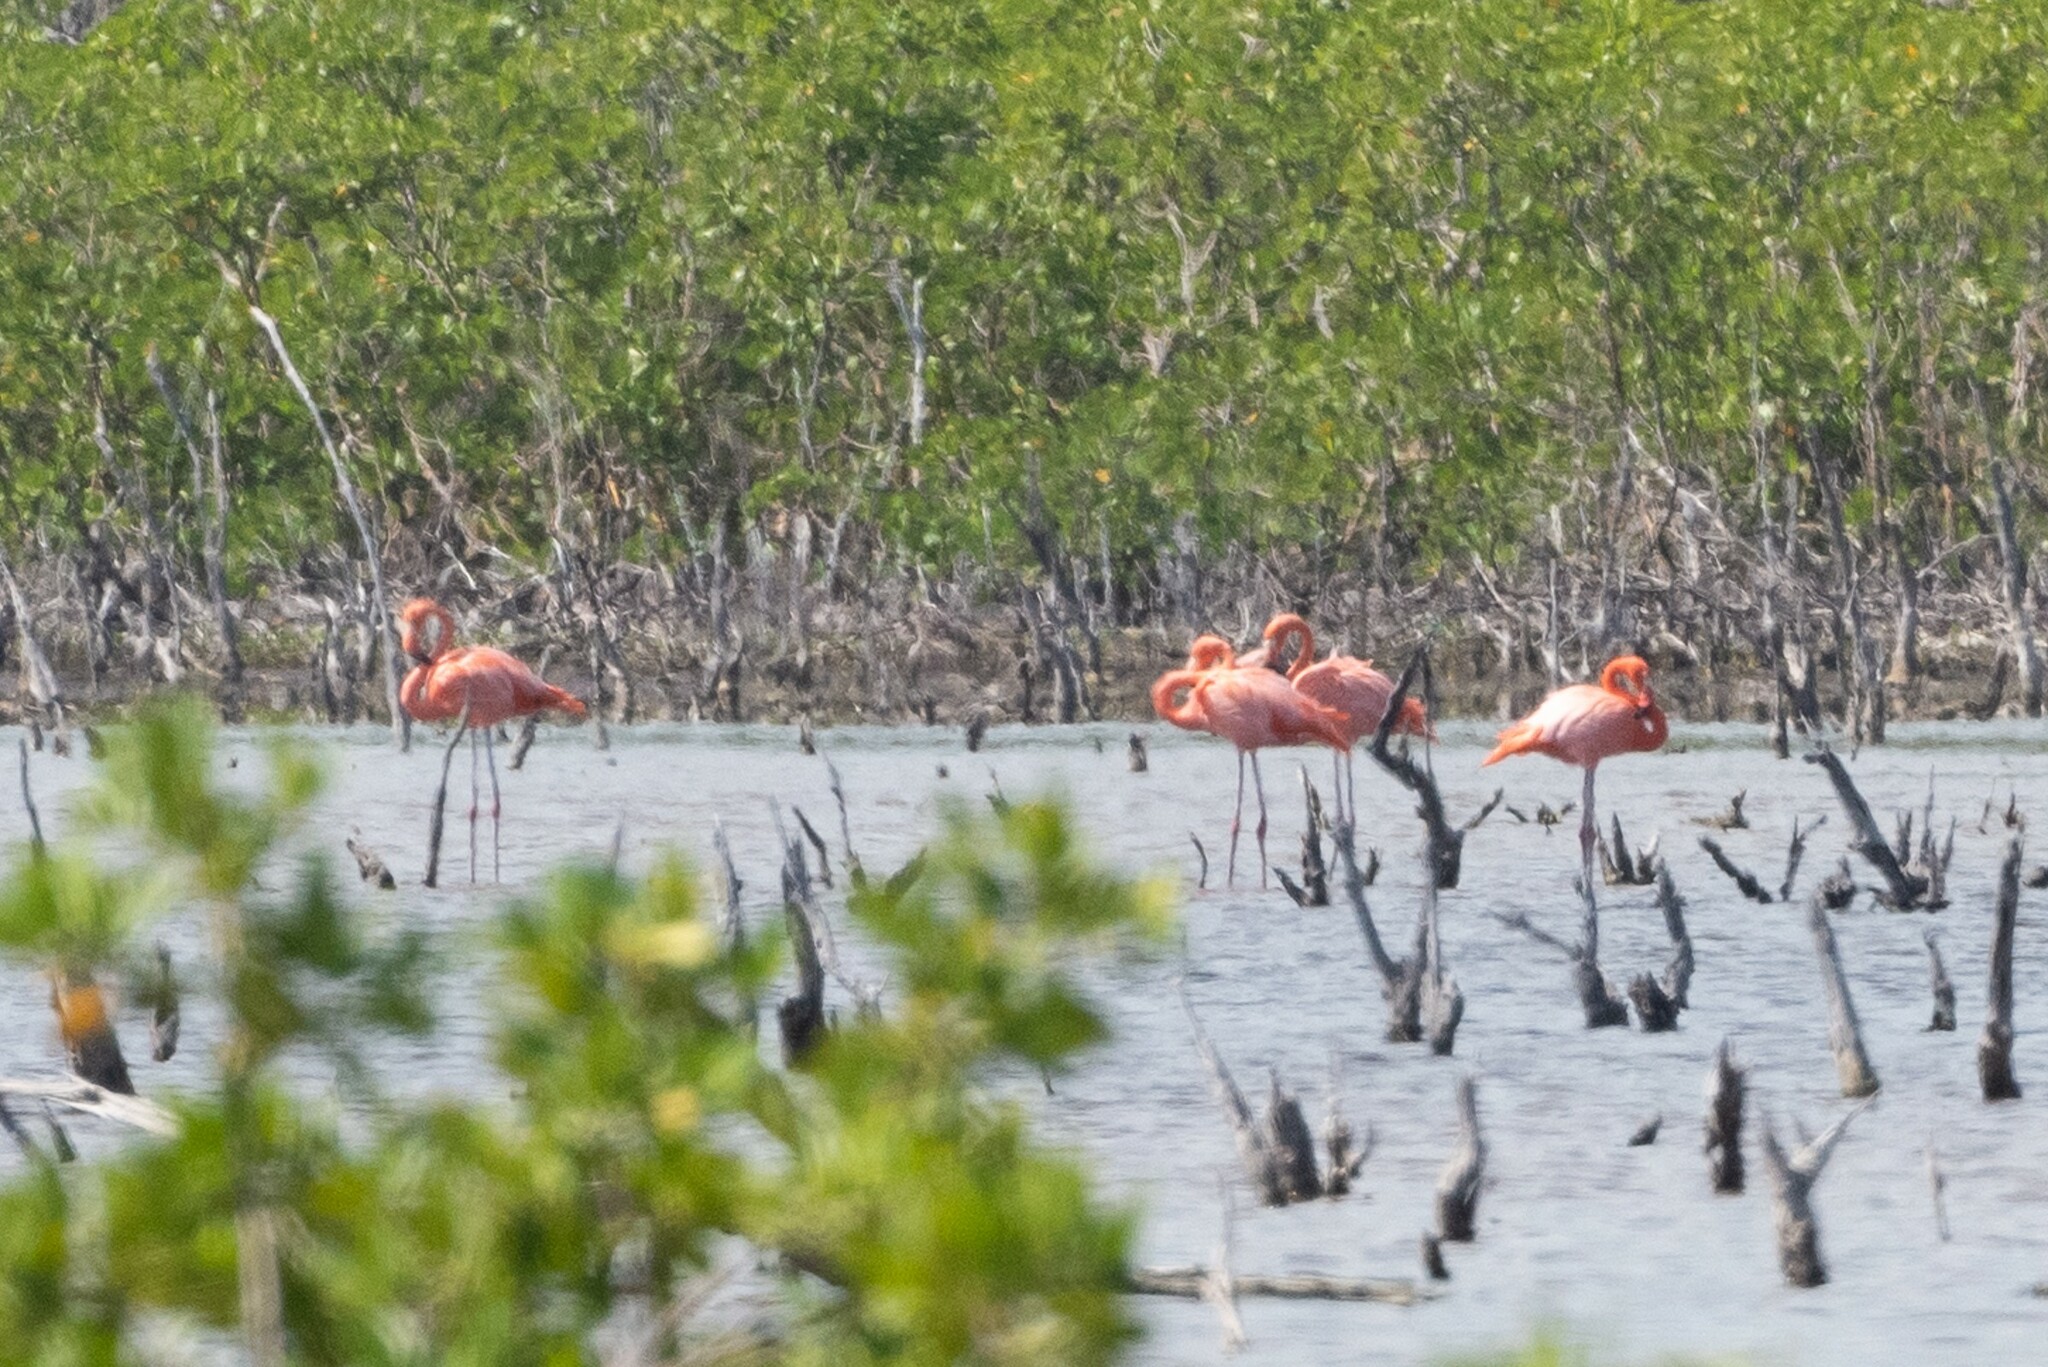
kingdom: Animalia
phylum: Chordata
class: Aves
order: Phoenicopteriformes
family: Phoenicopteridae
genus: Phoenicopterus
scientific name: Phoenicopterus ruber
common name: American flamingo
